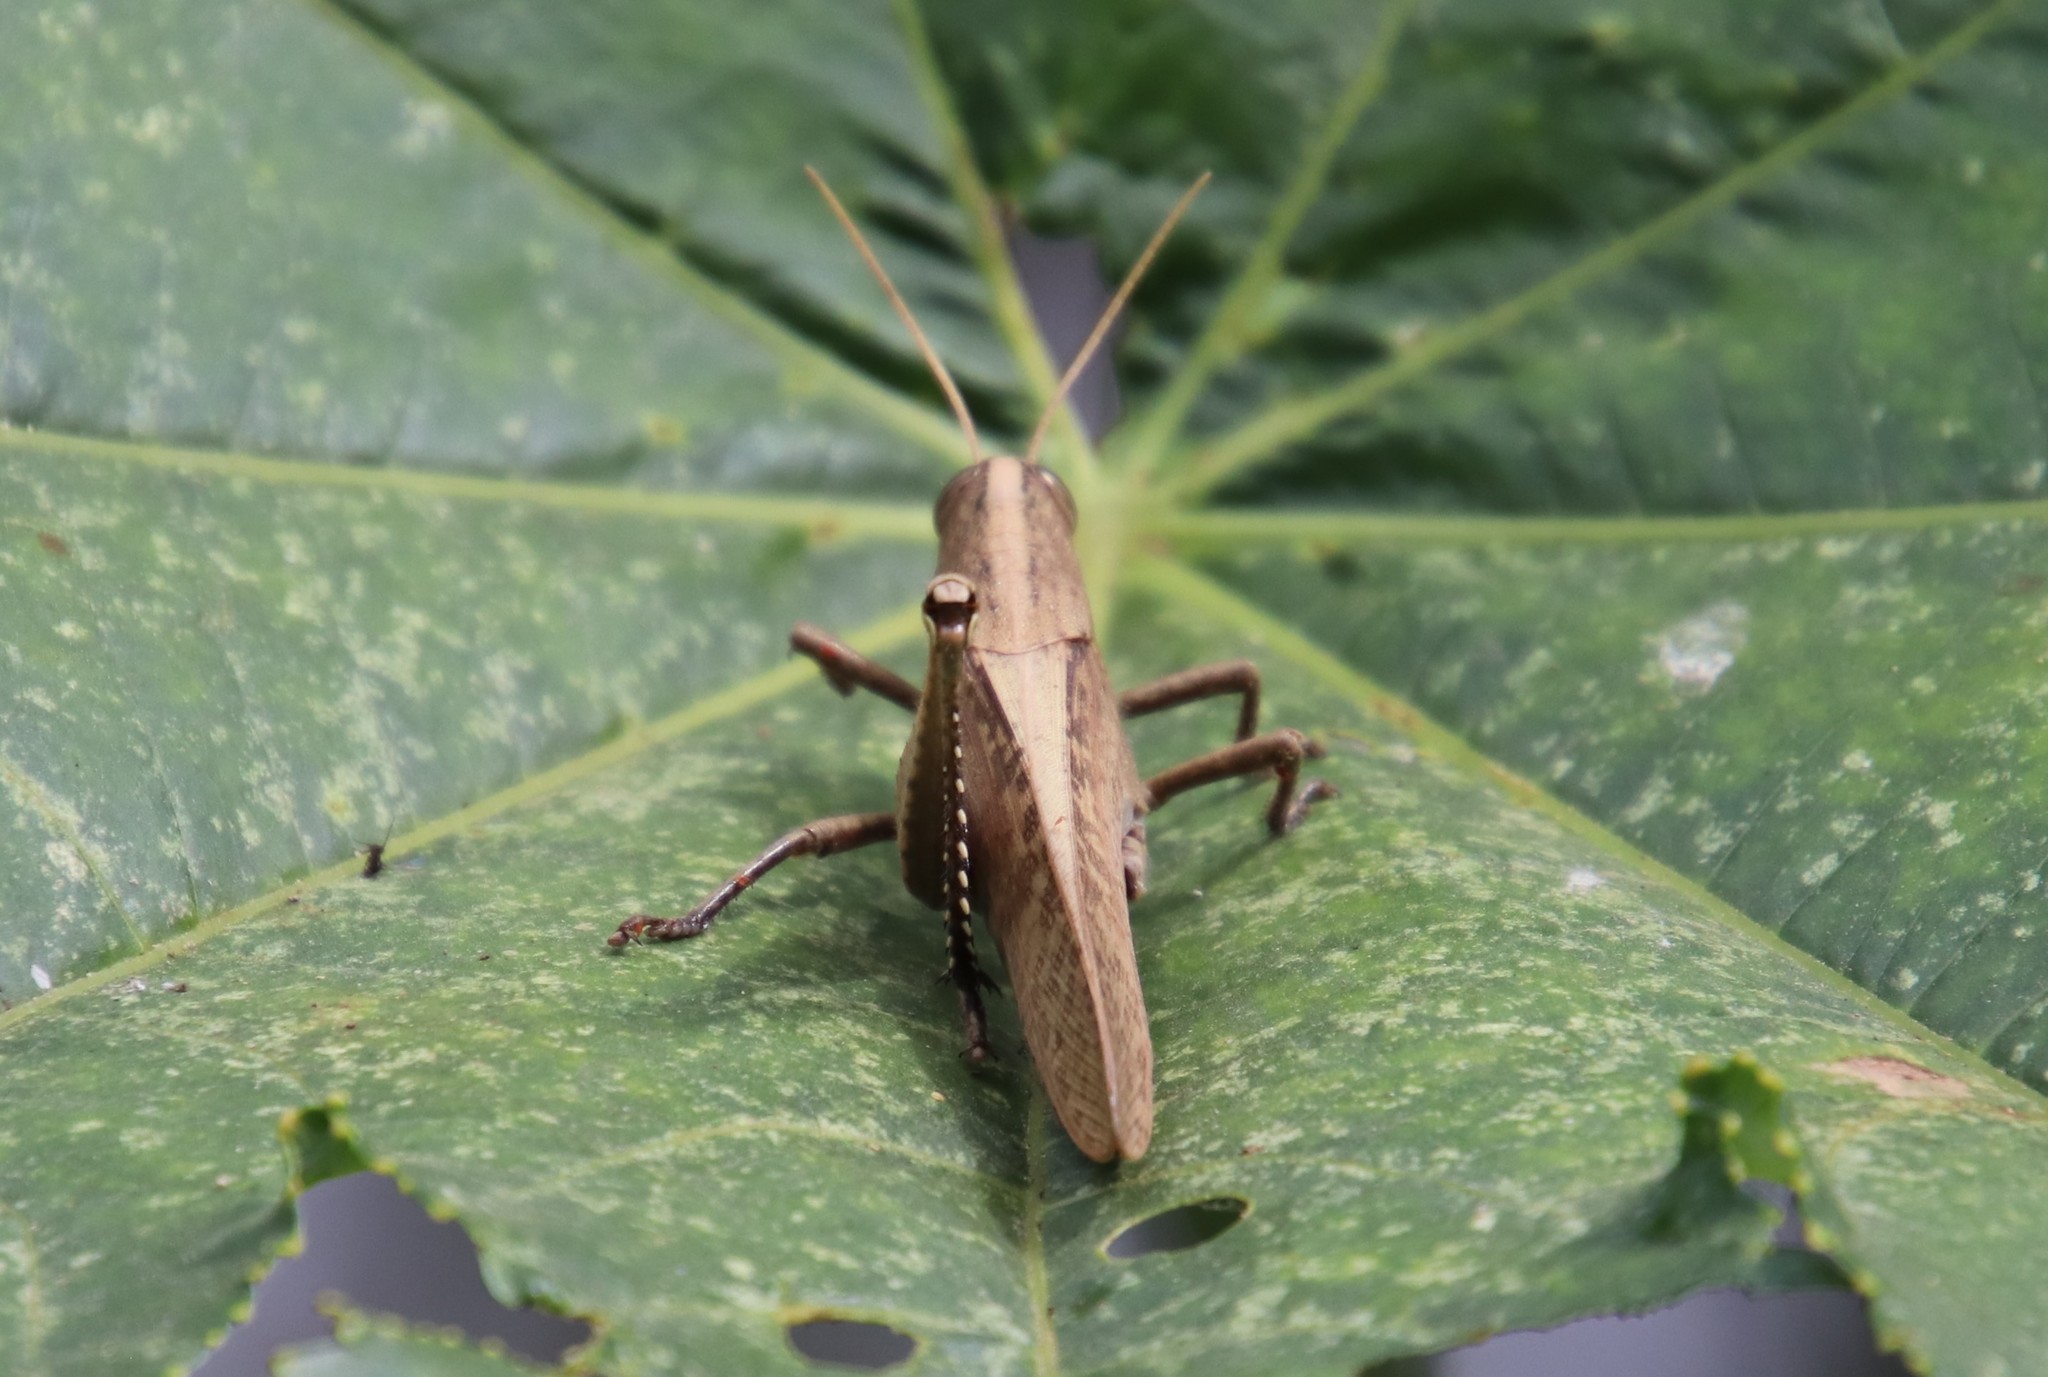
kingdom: Animalia
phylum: Arthropoda
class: Insecta
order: Orthoptera
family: Acrididae
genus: Schistocerca
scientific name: Schistocerca impleta
